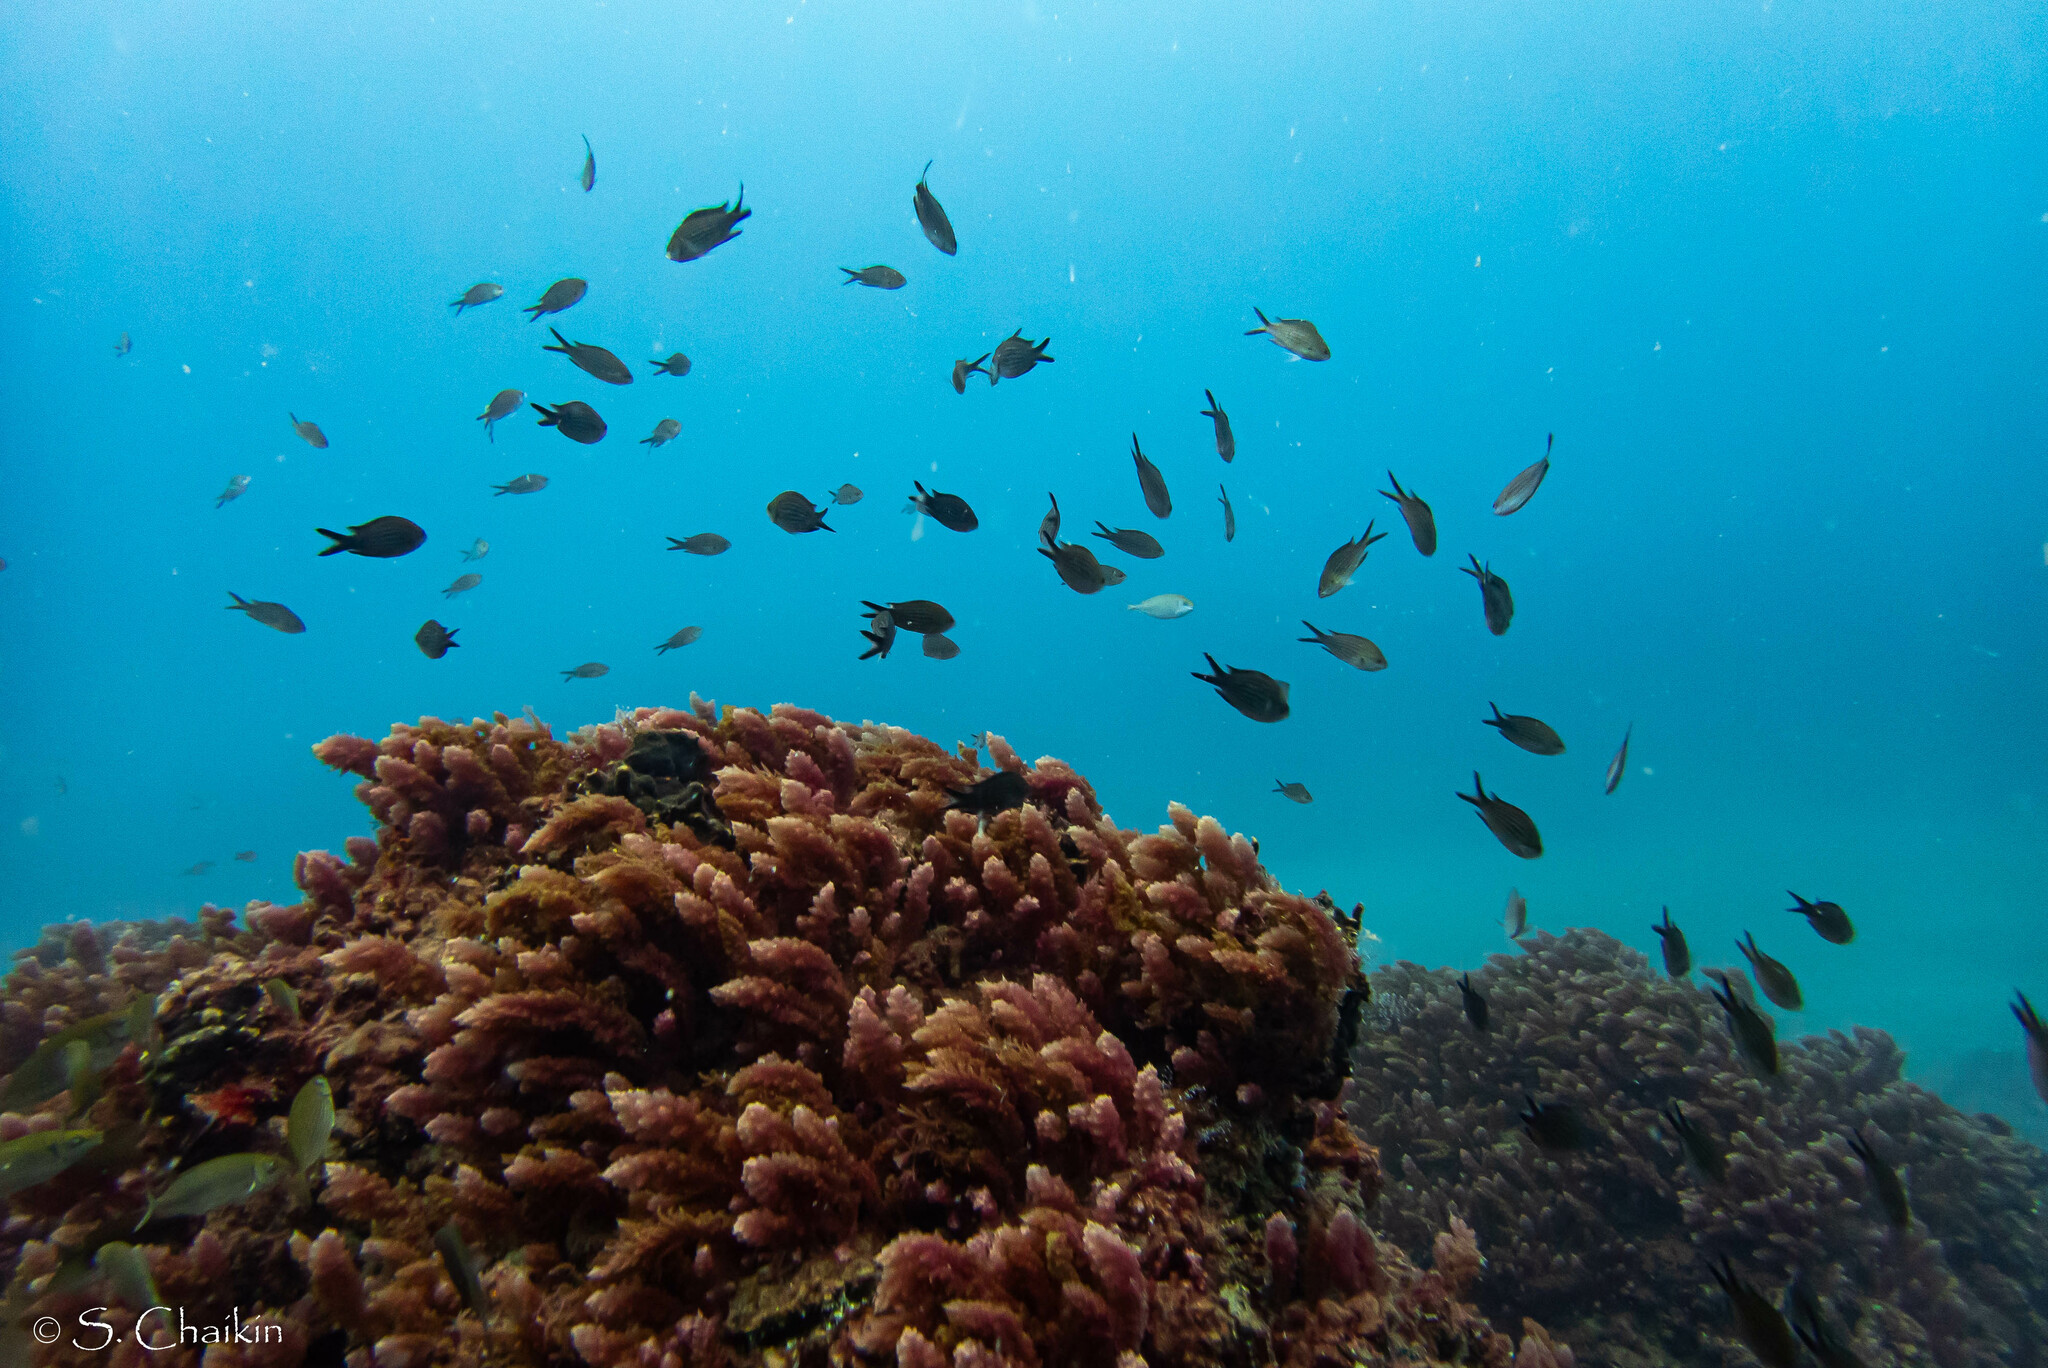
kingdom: Animalia
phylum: Chordata
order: Perciformes
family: Pomacentridae
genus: Chromis
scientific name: Chromis chromis
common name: Damselfish
